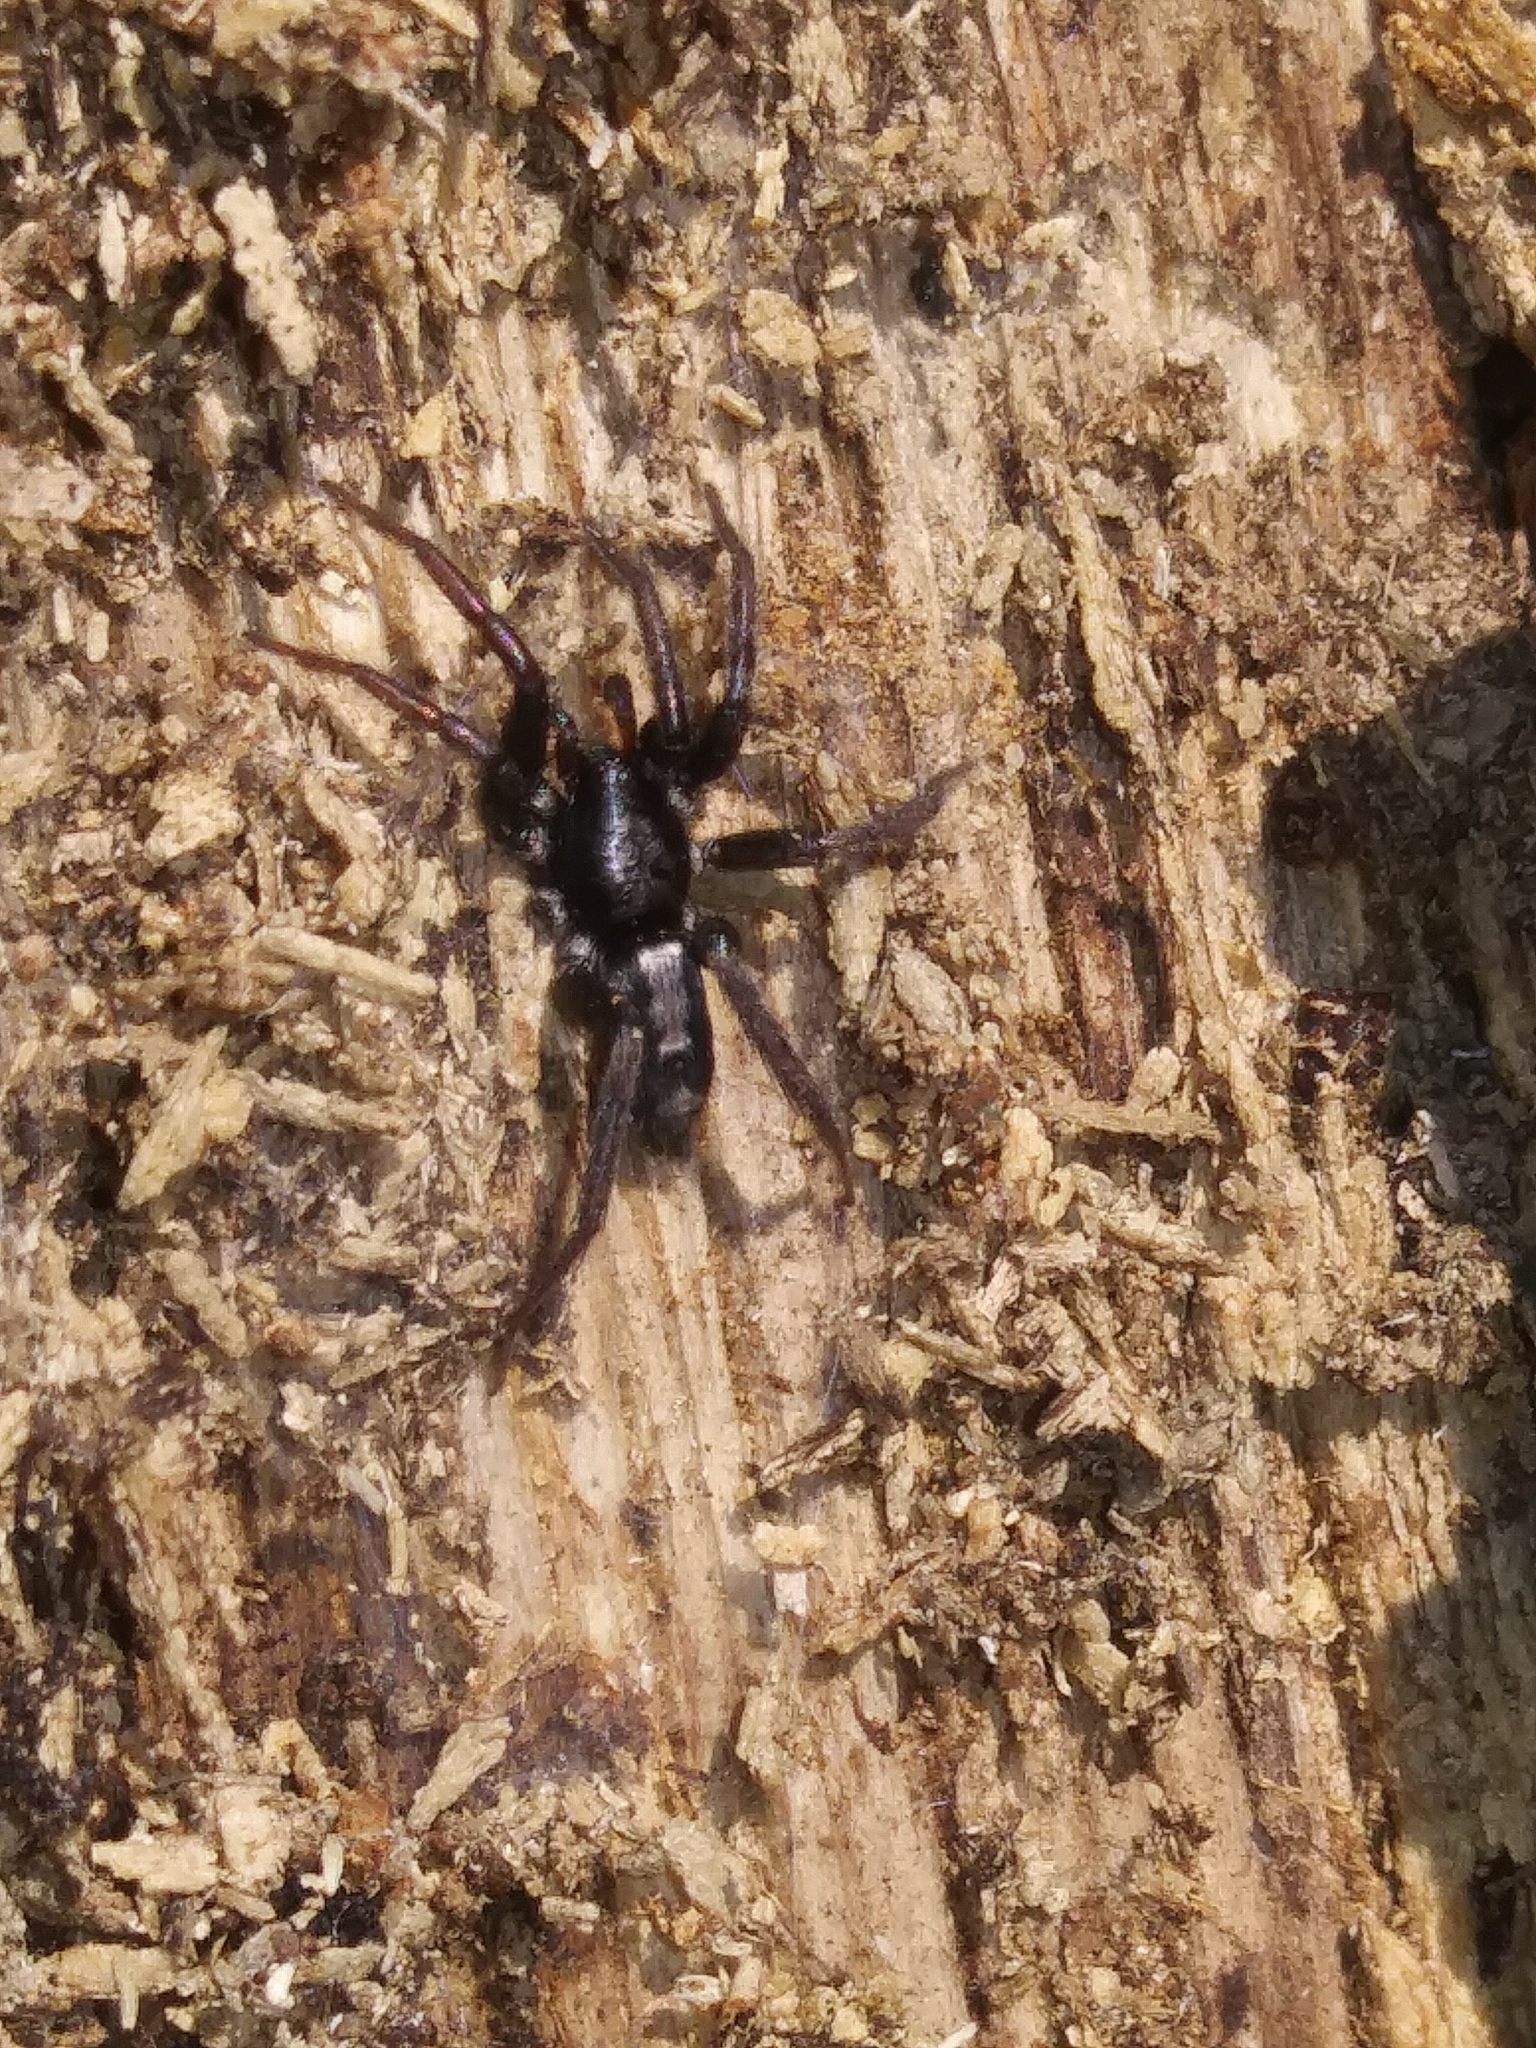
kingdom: Animalia
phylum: Arthropoda
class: Arachnida
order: Araneae
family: Gnaphosidae
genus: Herpyllus
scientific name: Herpyllus ecclesiasticus
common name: Eastern parson spider
